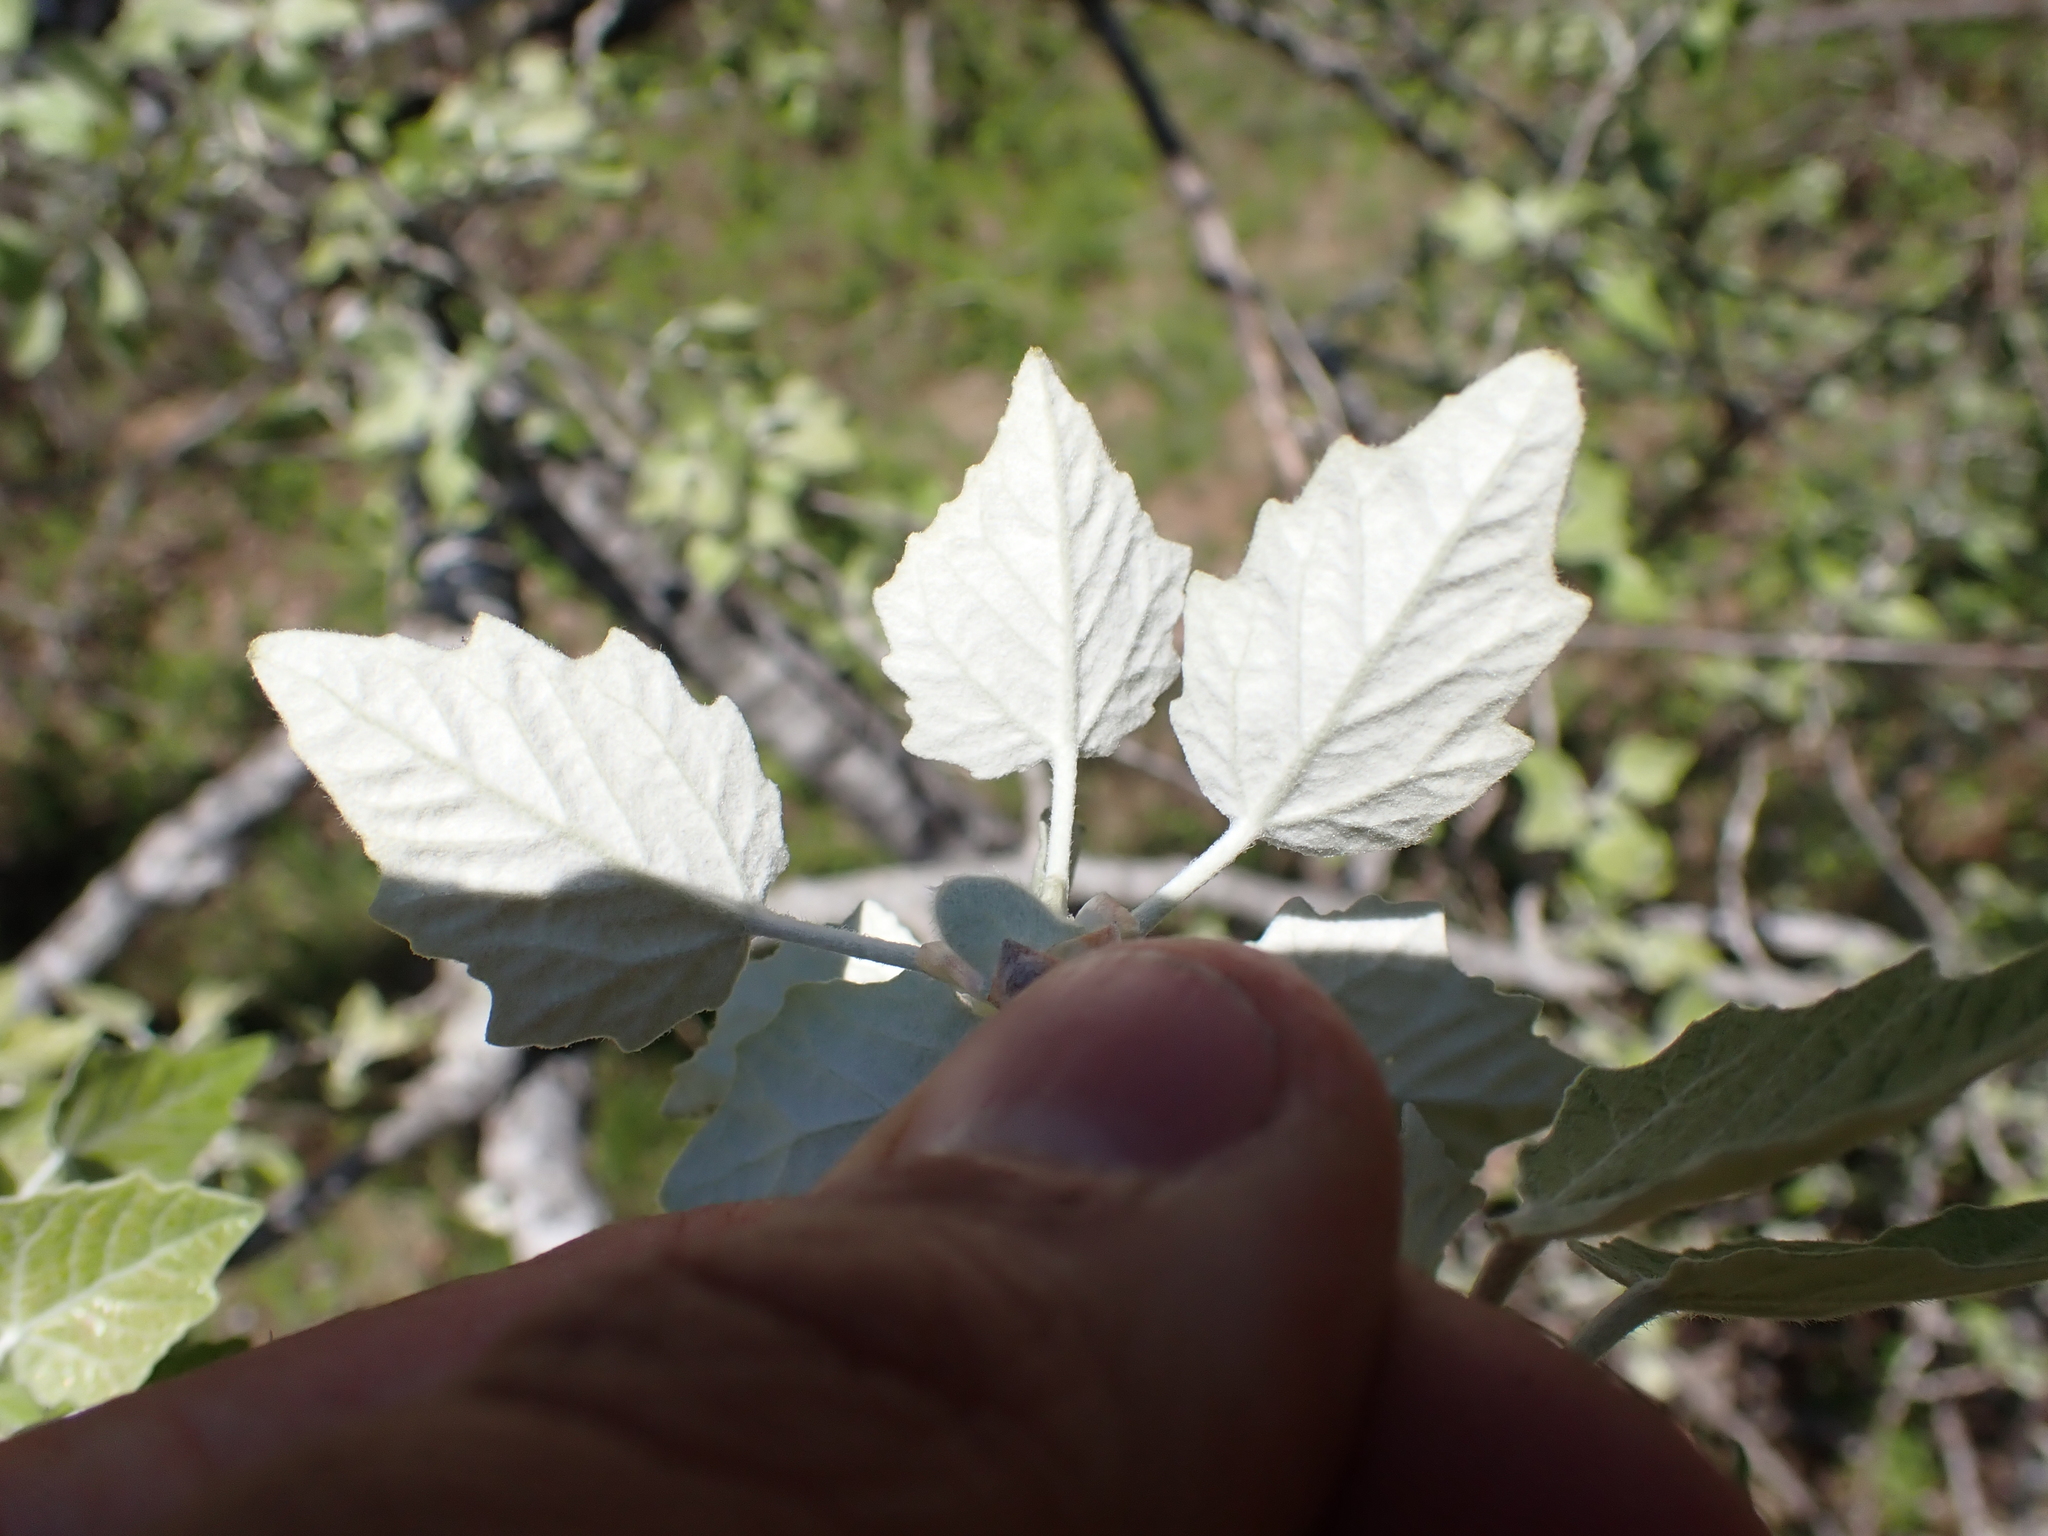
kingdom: Plantae
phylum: Tracheophyta
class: Magnoliopsida
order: Malpighiales
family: Salicaceae
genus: Populus
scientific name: Populus alba
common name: White poplar
